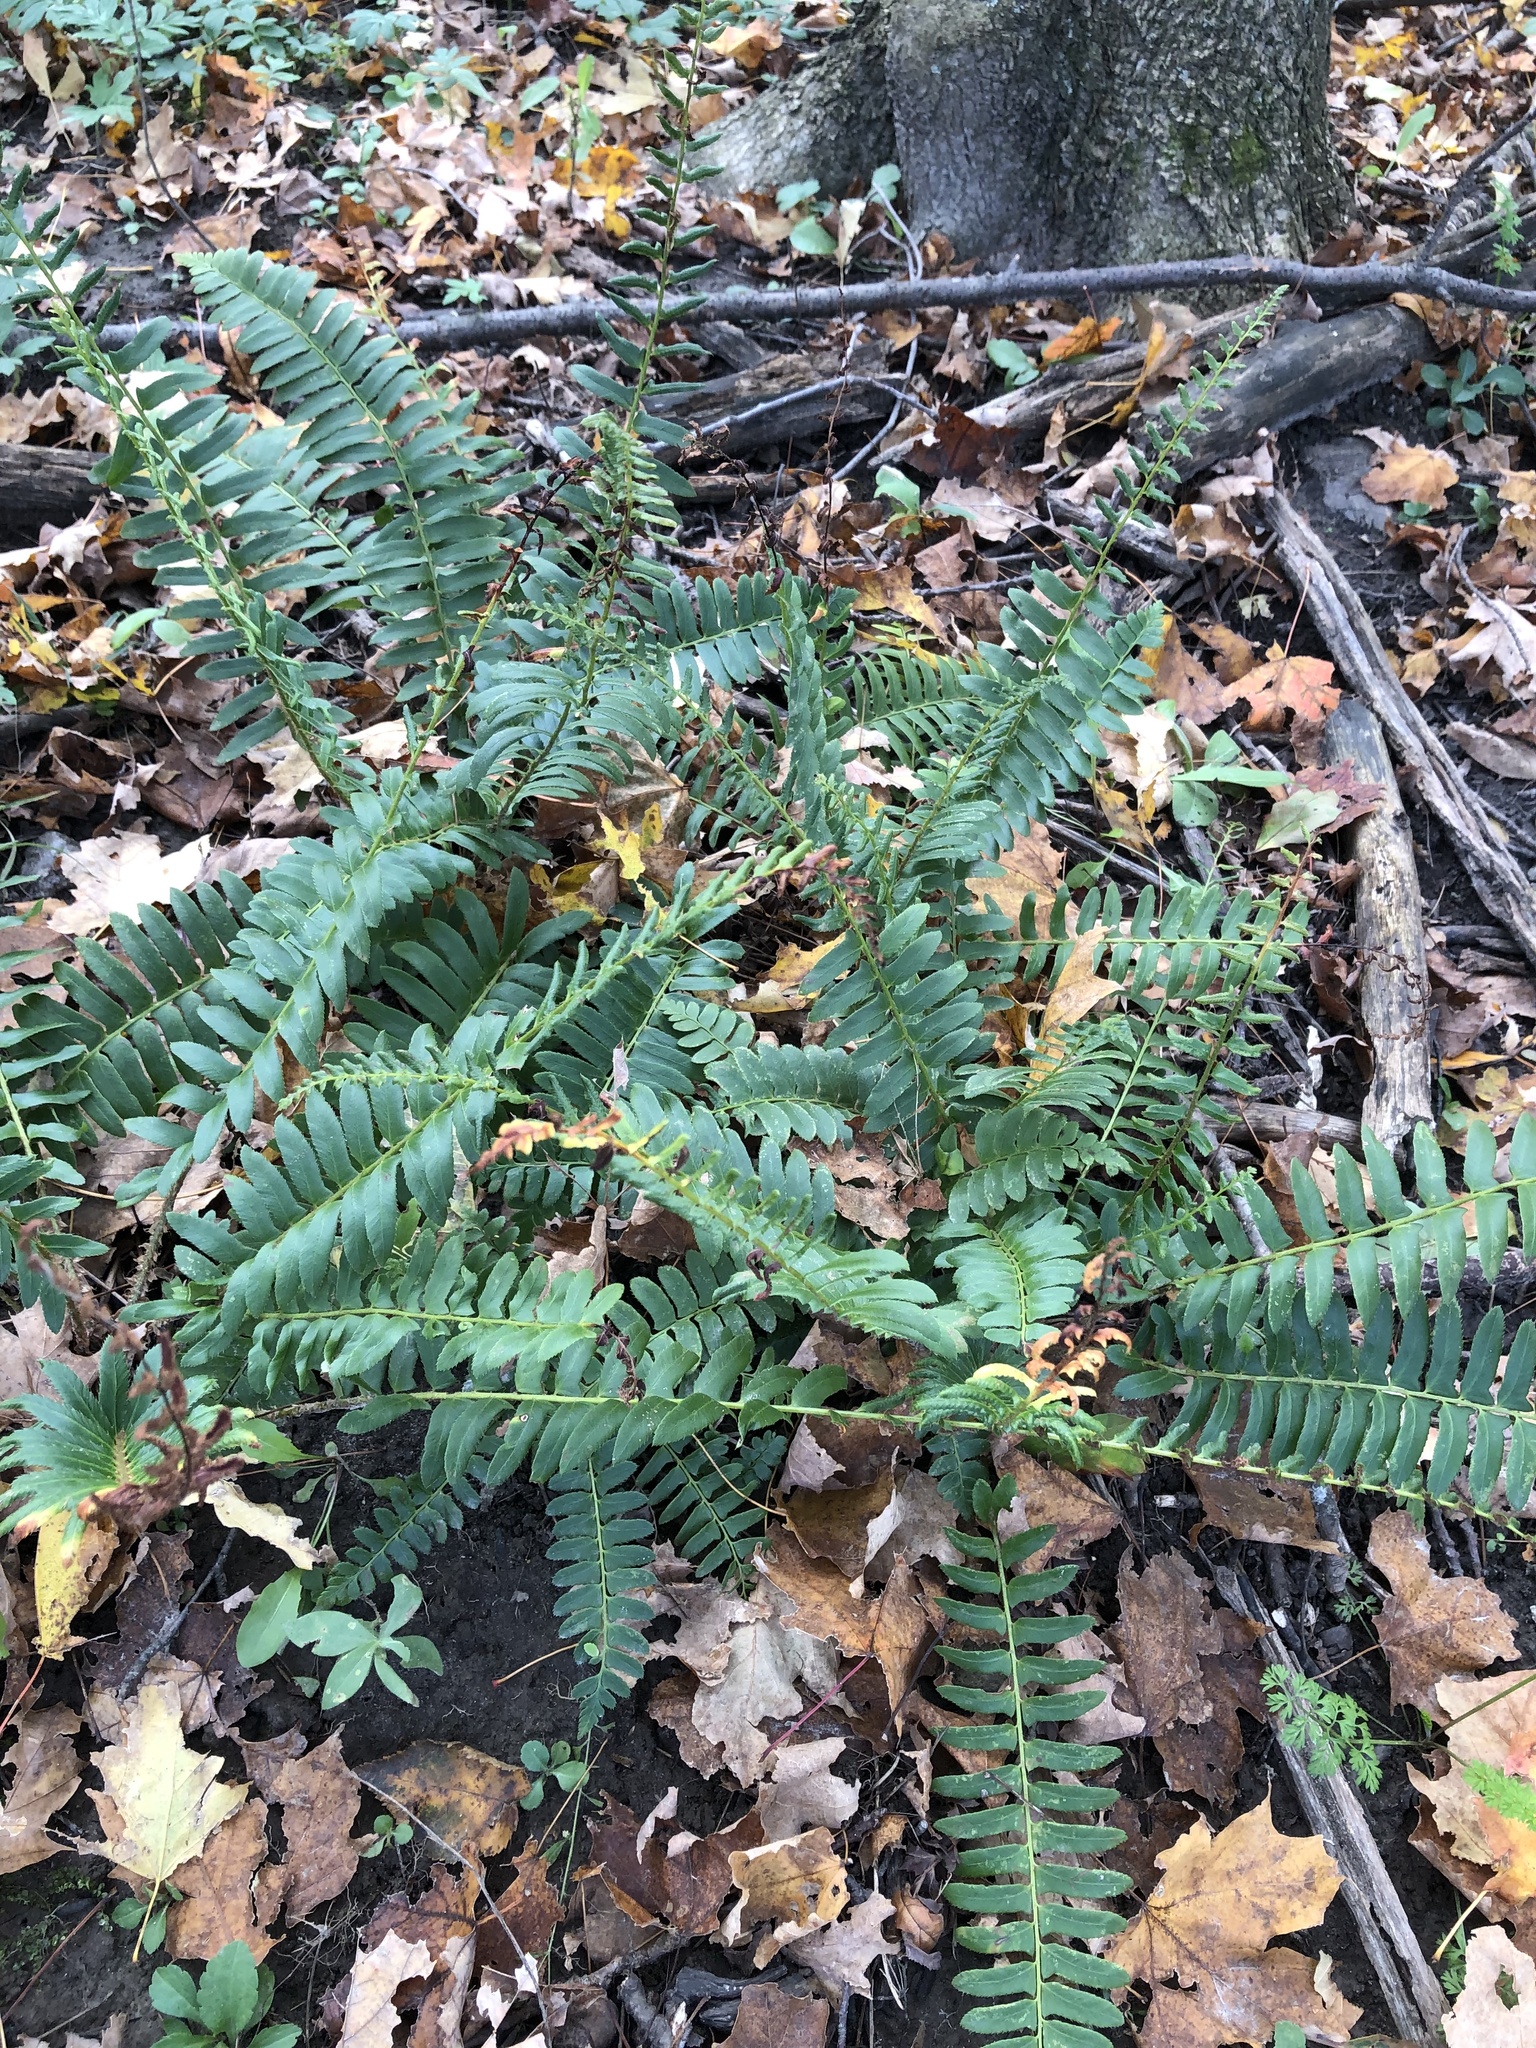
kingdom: Plantae
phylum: Tracheophyta
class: Polypodiopsida
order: Polypodiales
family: Dryopteridaceae
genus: Polystichum
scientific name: Polystichum acrostichoides
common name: Christmas fern
